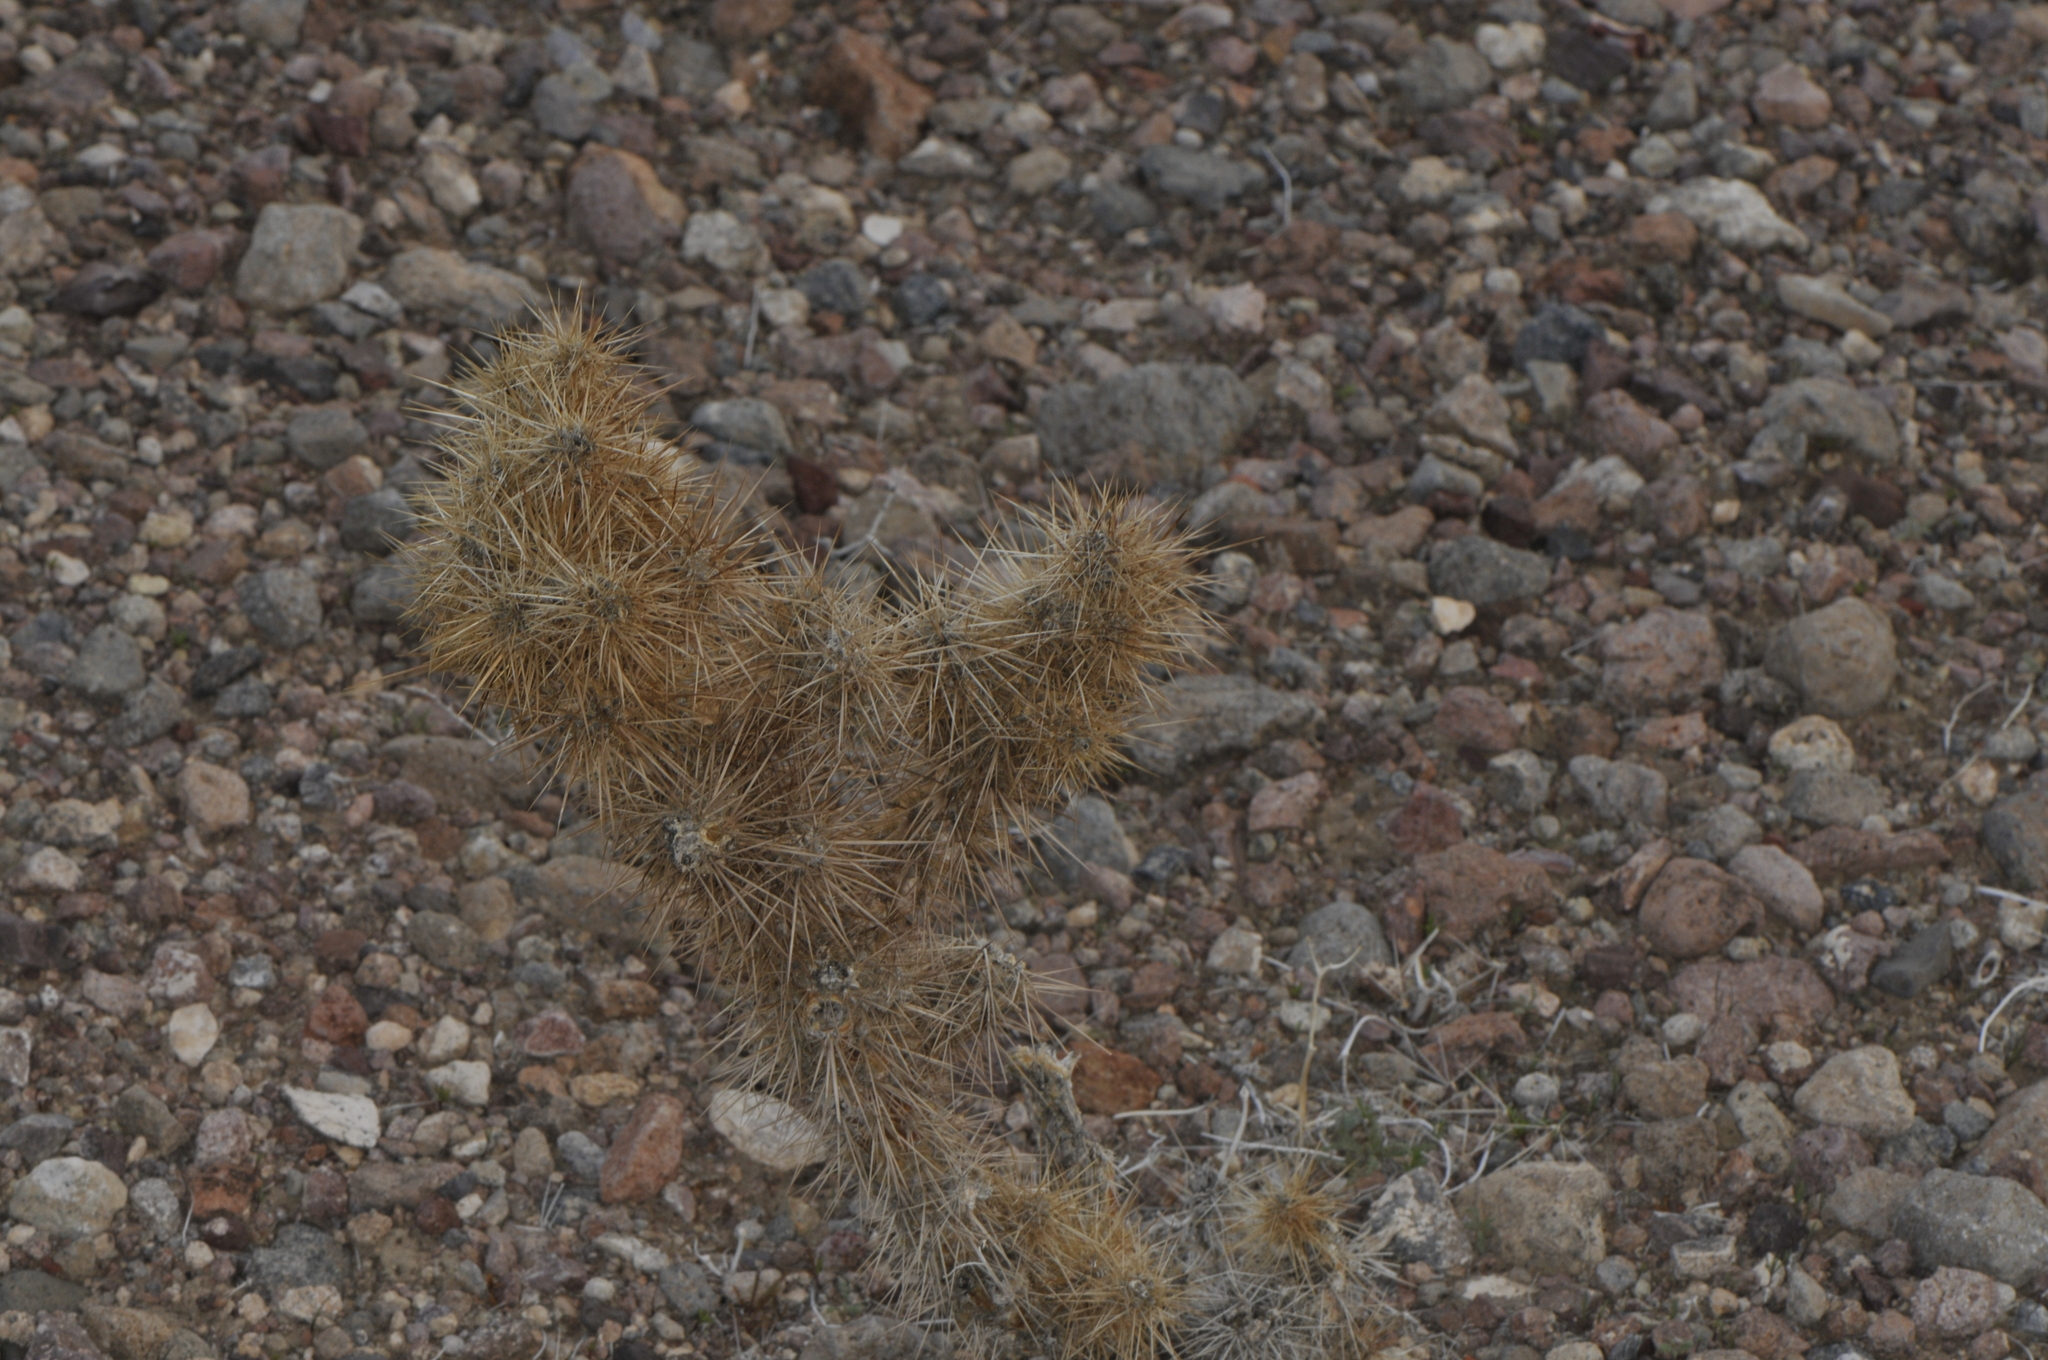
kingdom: Plantae
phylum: Tracheophyta
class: Magnoliopsida
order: Caryophyllales
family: Cactaceae
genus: Cylindropuntia
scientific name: Cylindropuntia echinocarpa
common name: Ground cholla
